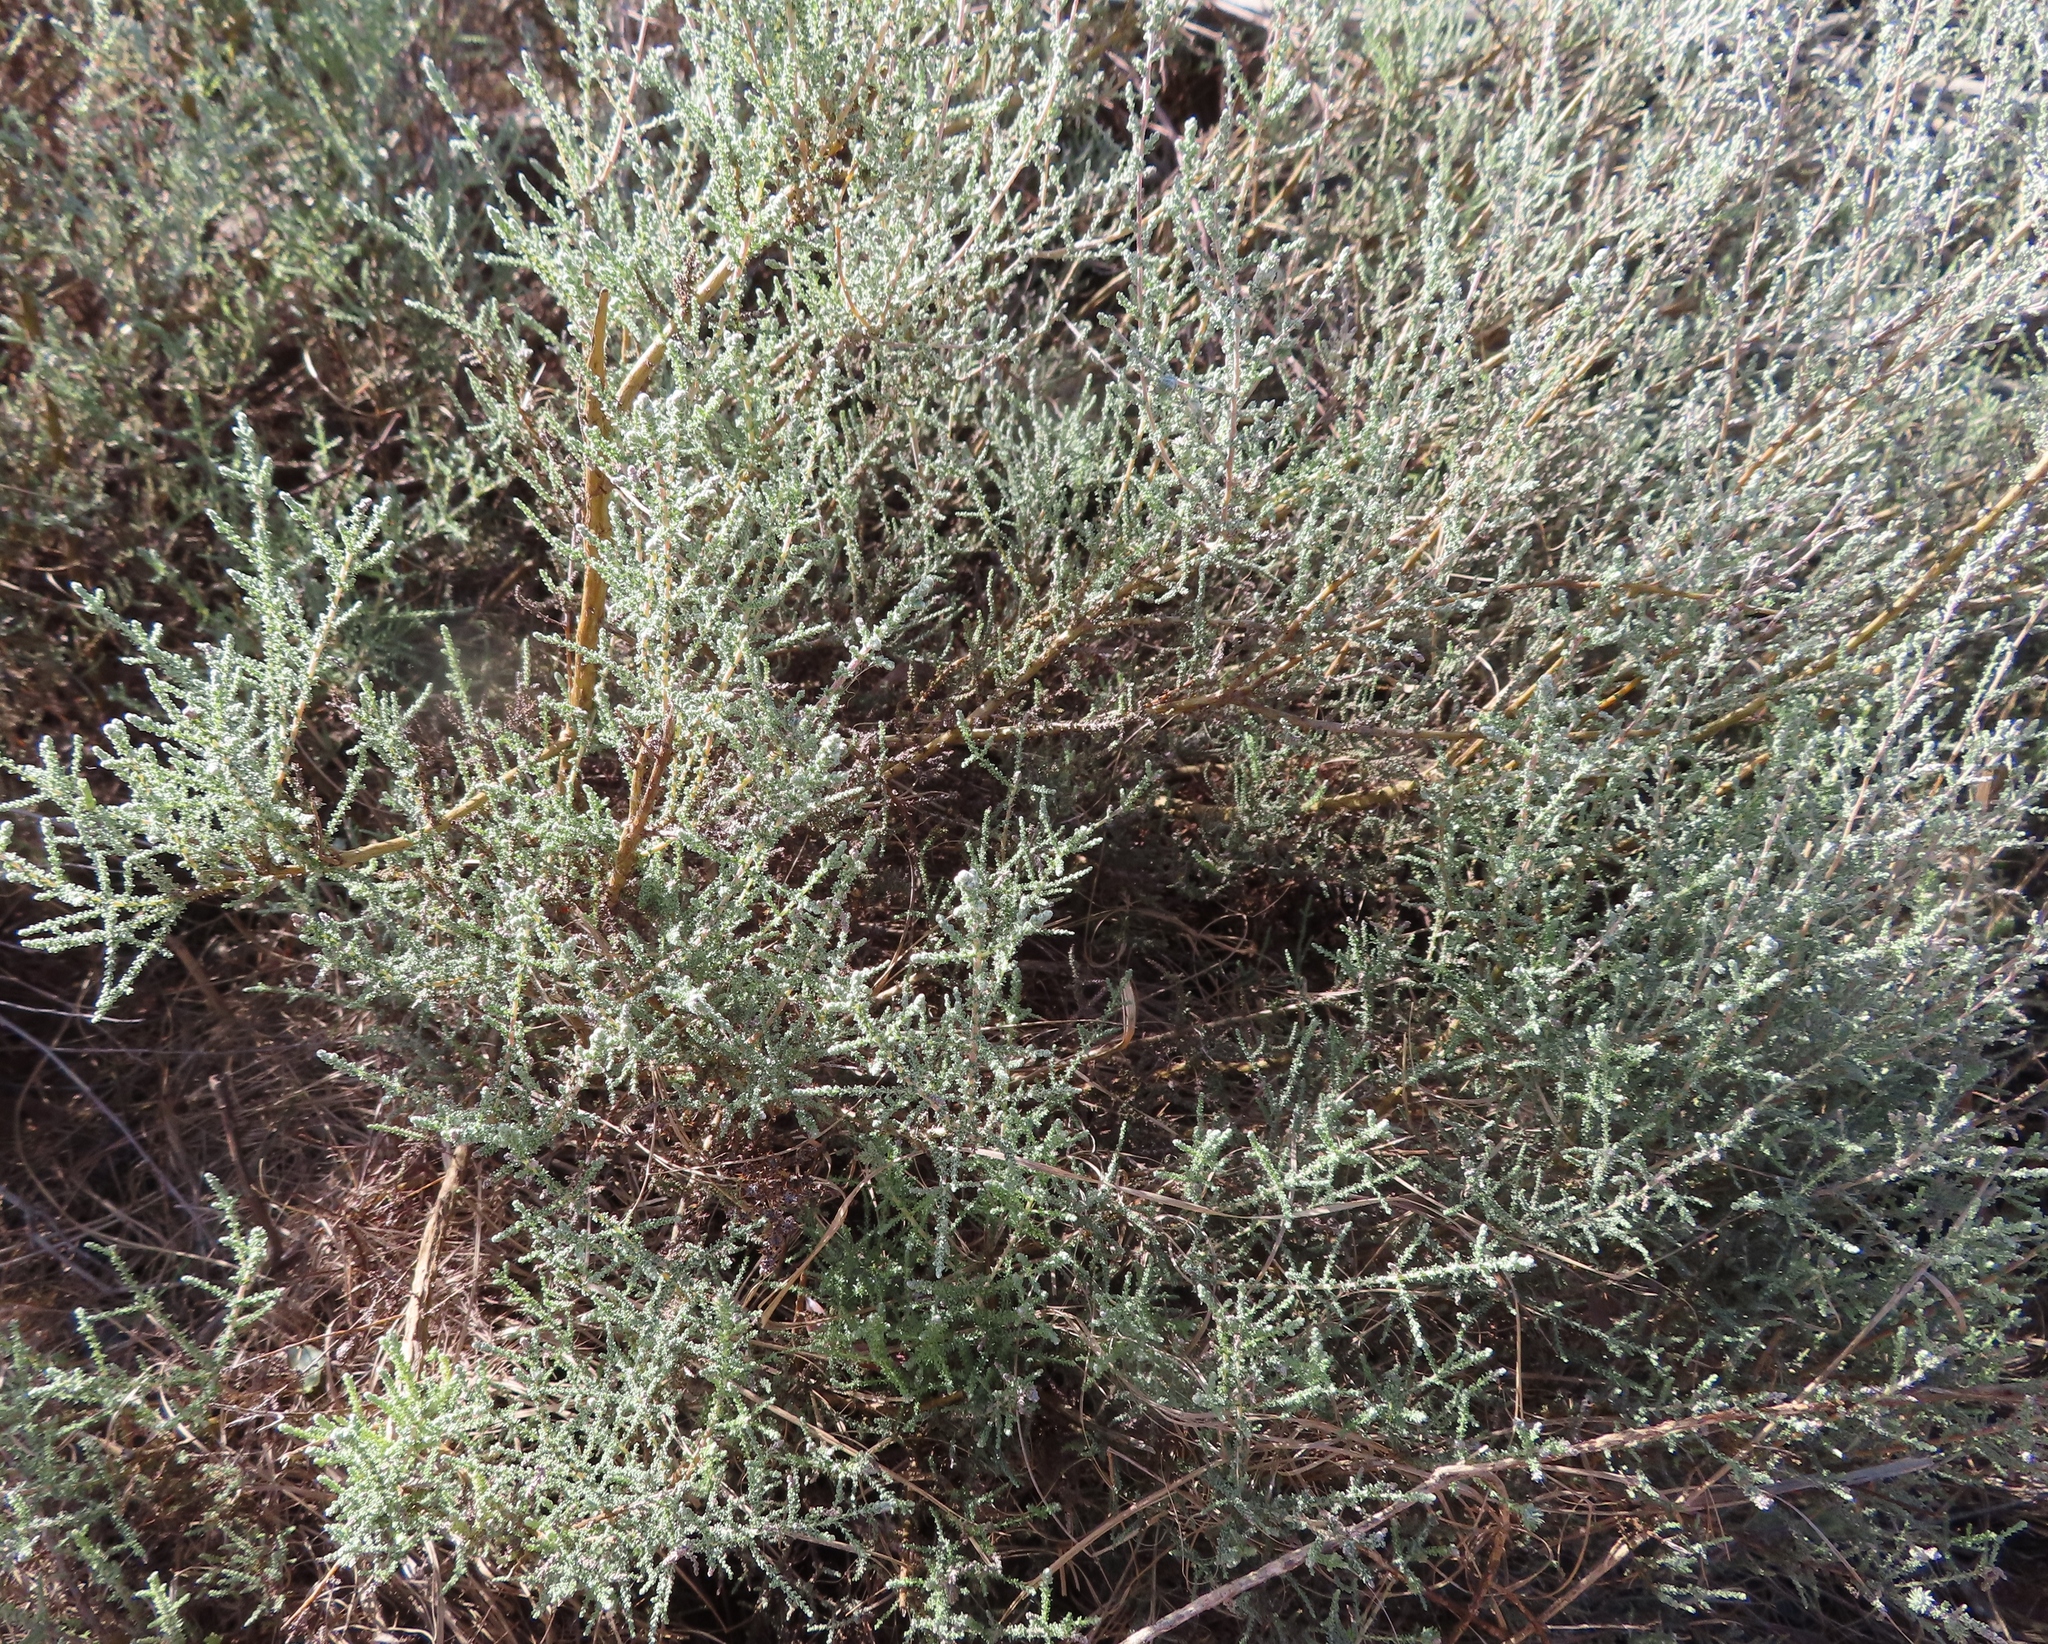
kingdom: Plantae
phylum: Tracheophyta
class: Magnoliopsida
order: Asterales
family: Asteraceae
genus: Seriphium
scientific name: Seriphium plumosum
